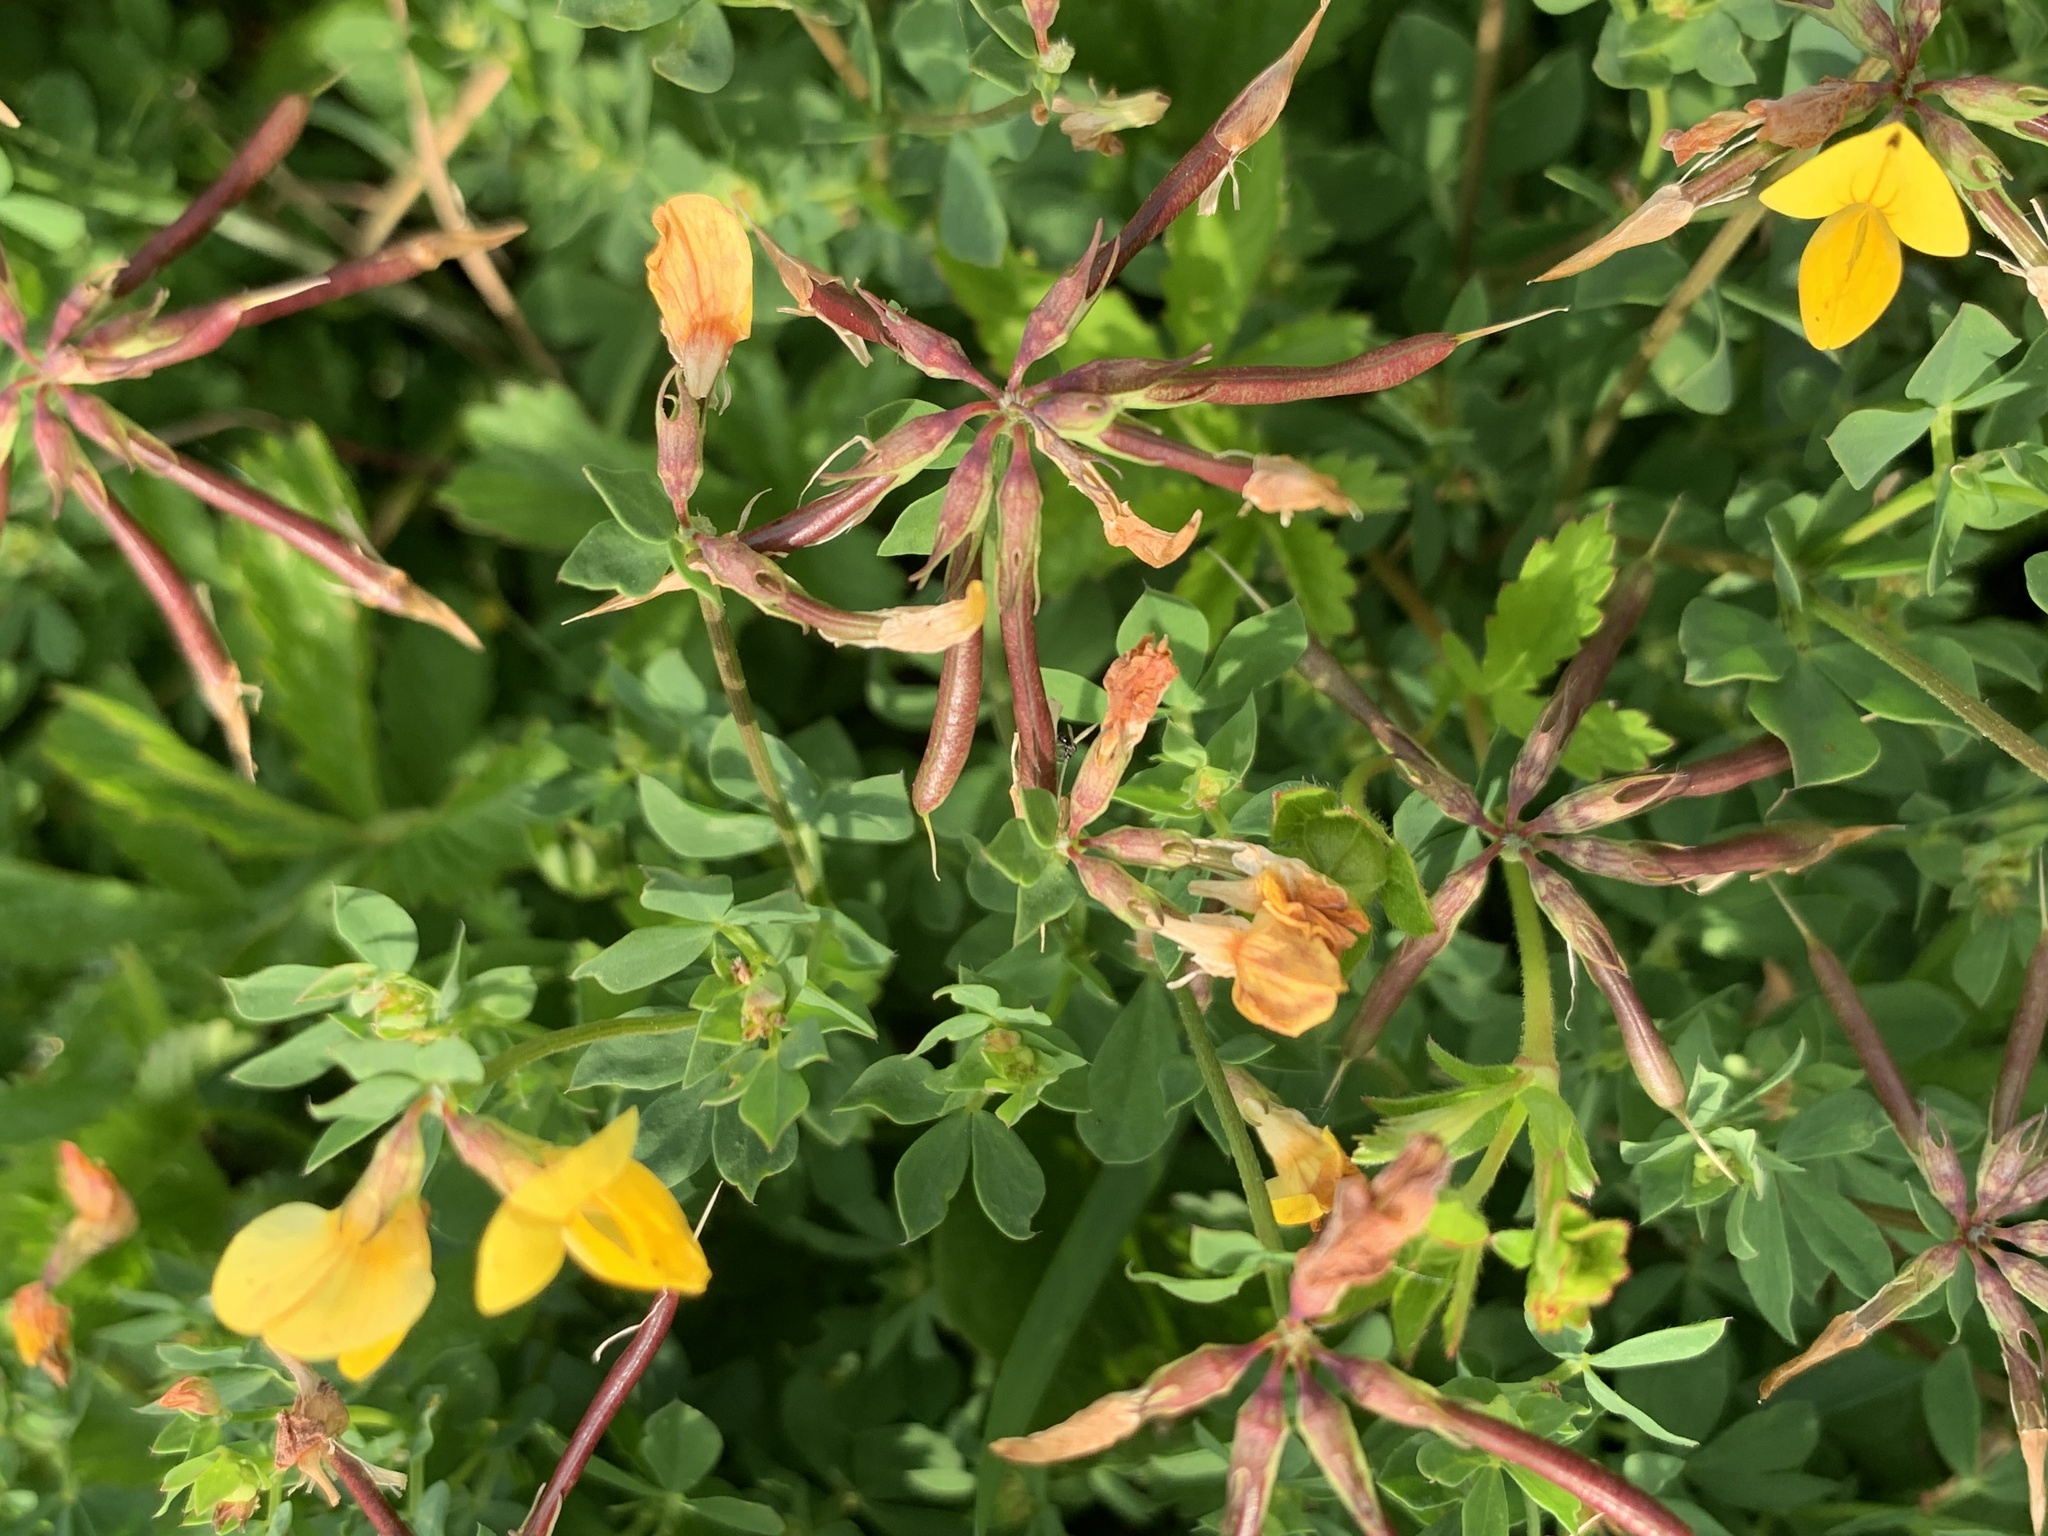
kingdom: Plantae
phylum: Tracheophyta
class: Magnoliopsida
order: Fabales
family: Fabaceae
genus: Lotus
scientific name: Lotus corniculatus
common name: Common bird's-foot-trefoil
